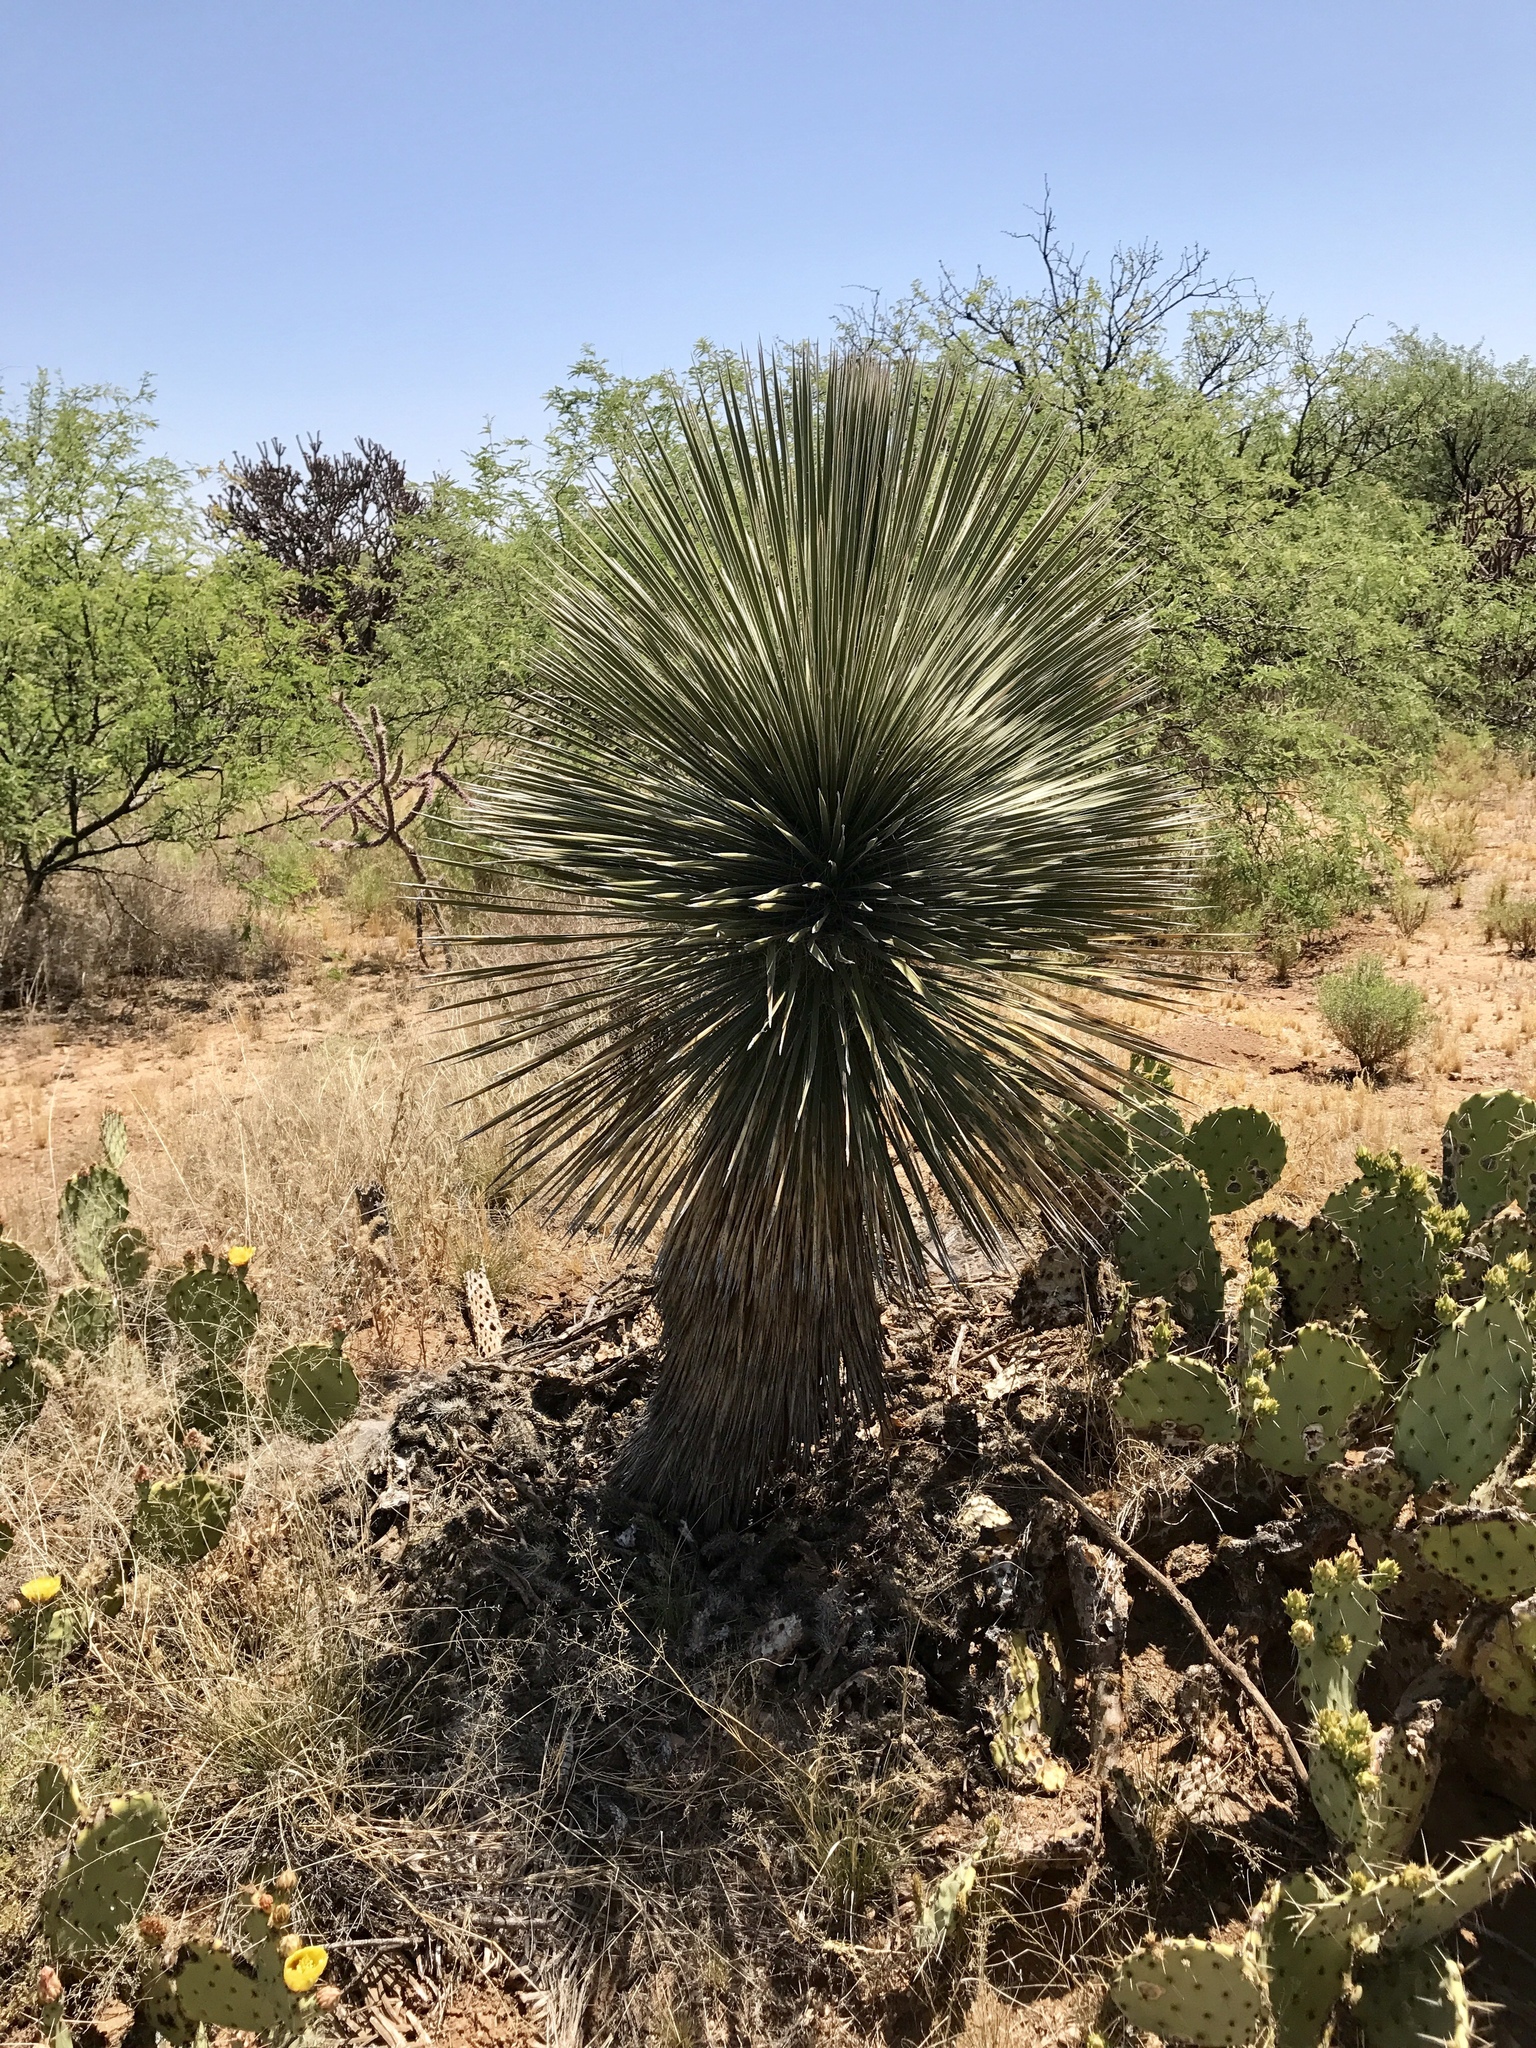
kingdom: Plantae
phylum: Tracheophyta
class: Liliopsida
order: Asparagales
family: Asparagaceae
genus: Yucca
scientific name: Yucca elata
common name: Palmella
